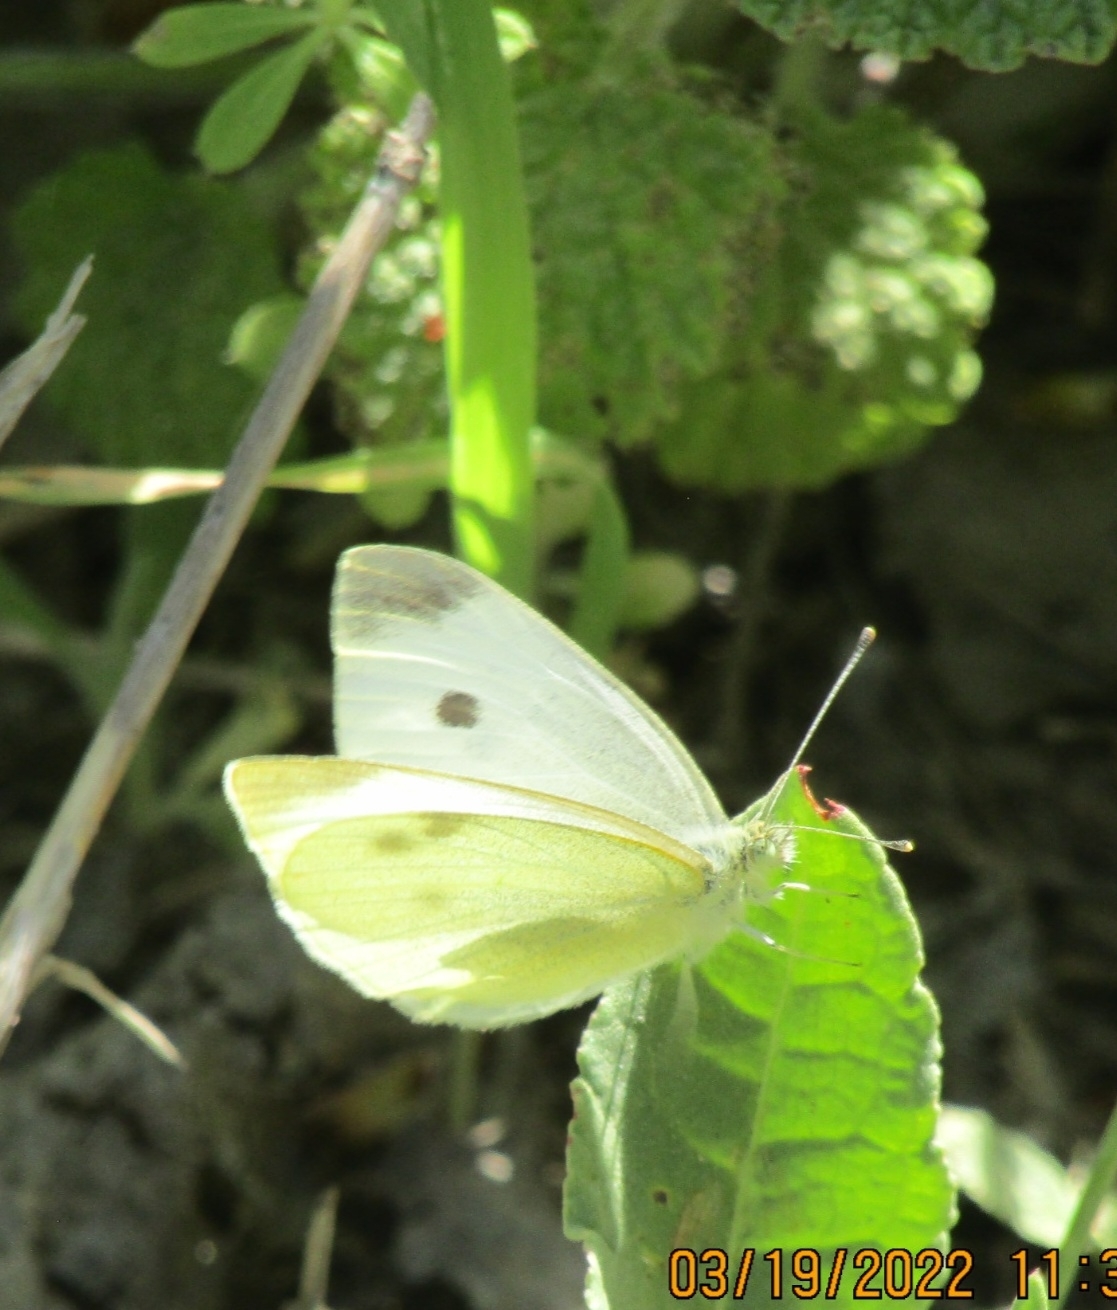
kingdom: Animalia
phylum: Arthropoda
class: Insecta
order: Lepidoptera
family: Pieridae
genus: Pieris
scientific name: Pieris rapae
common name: Small white
